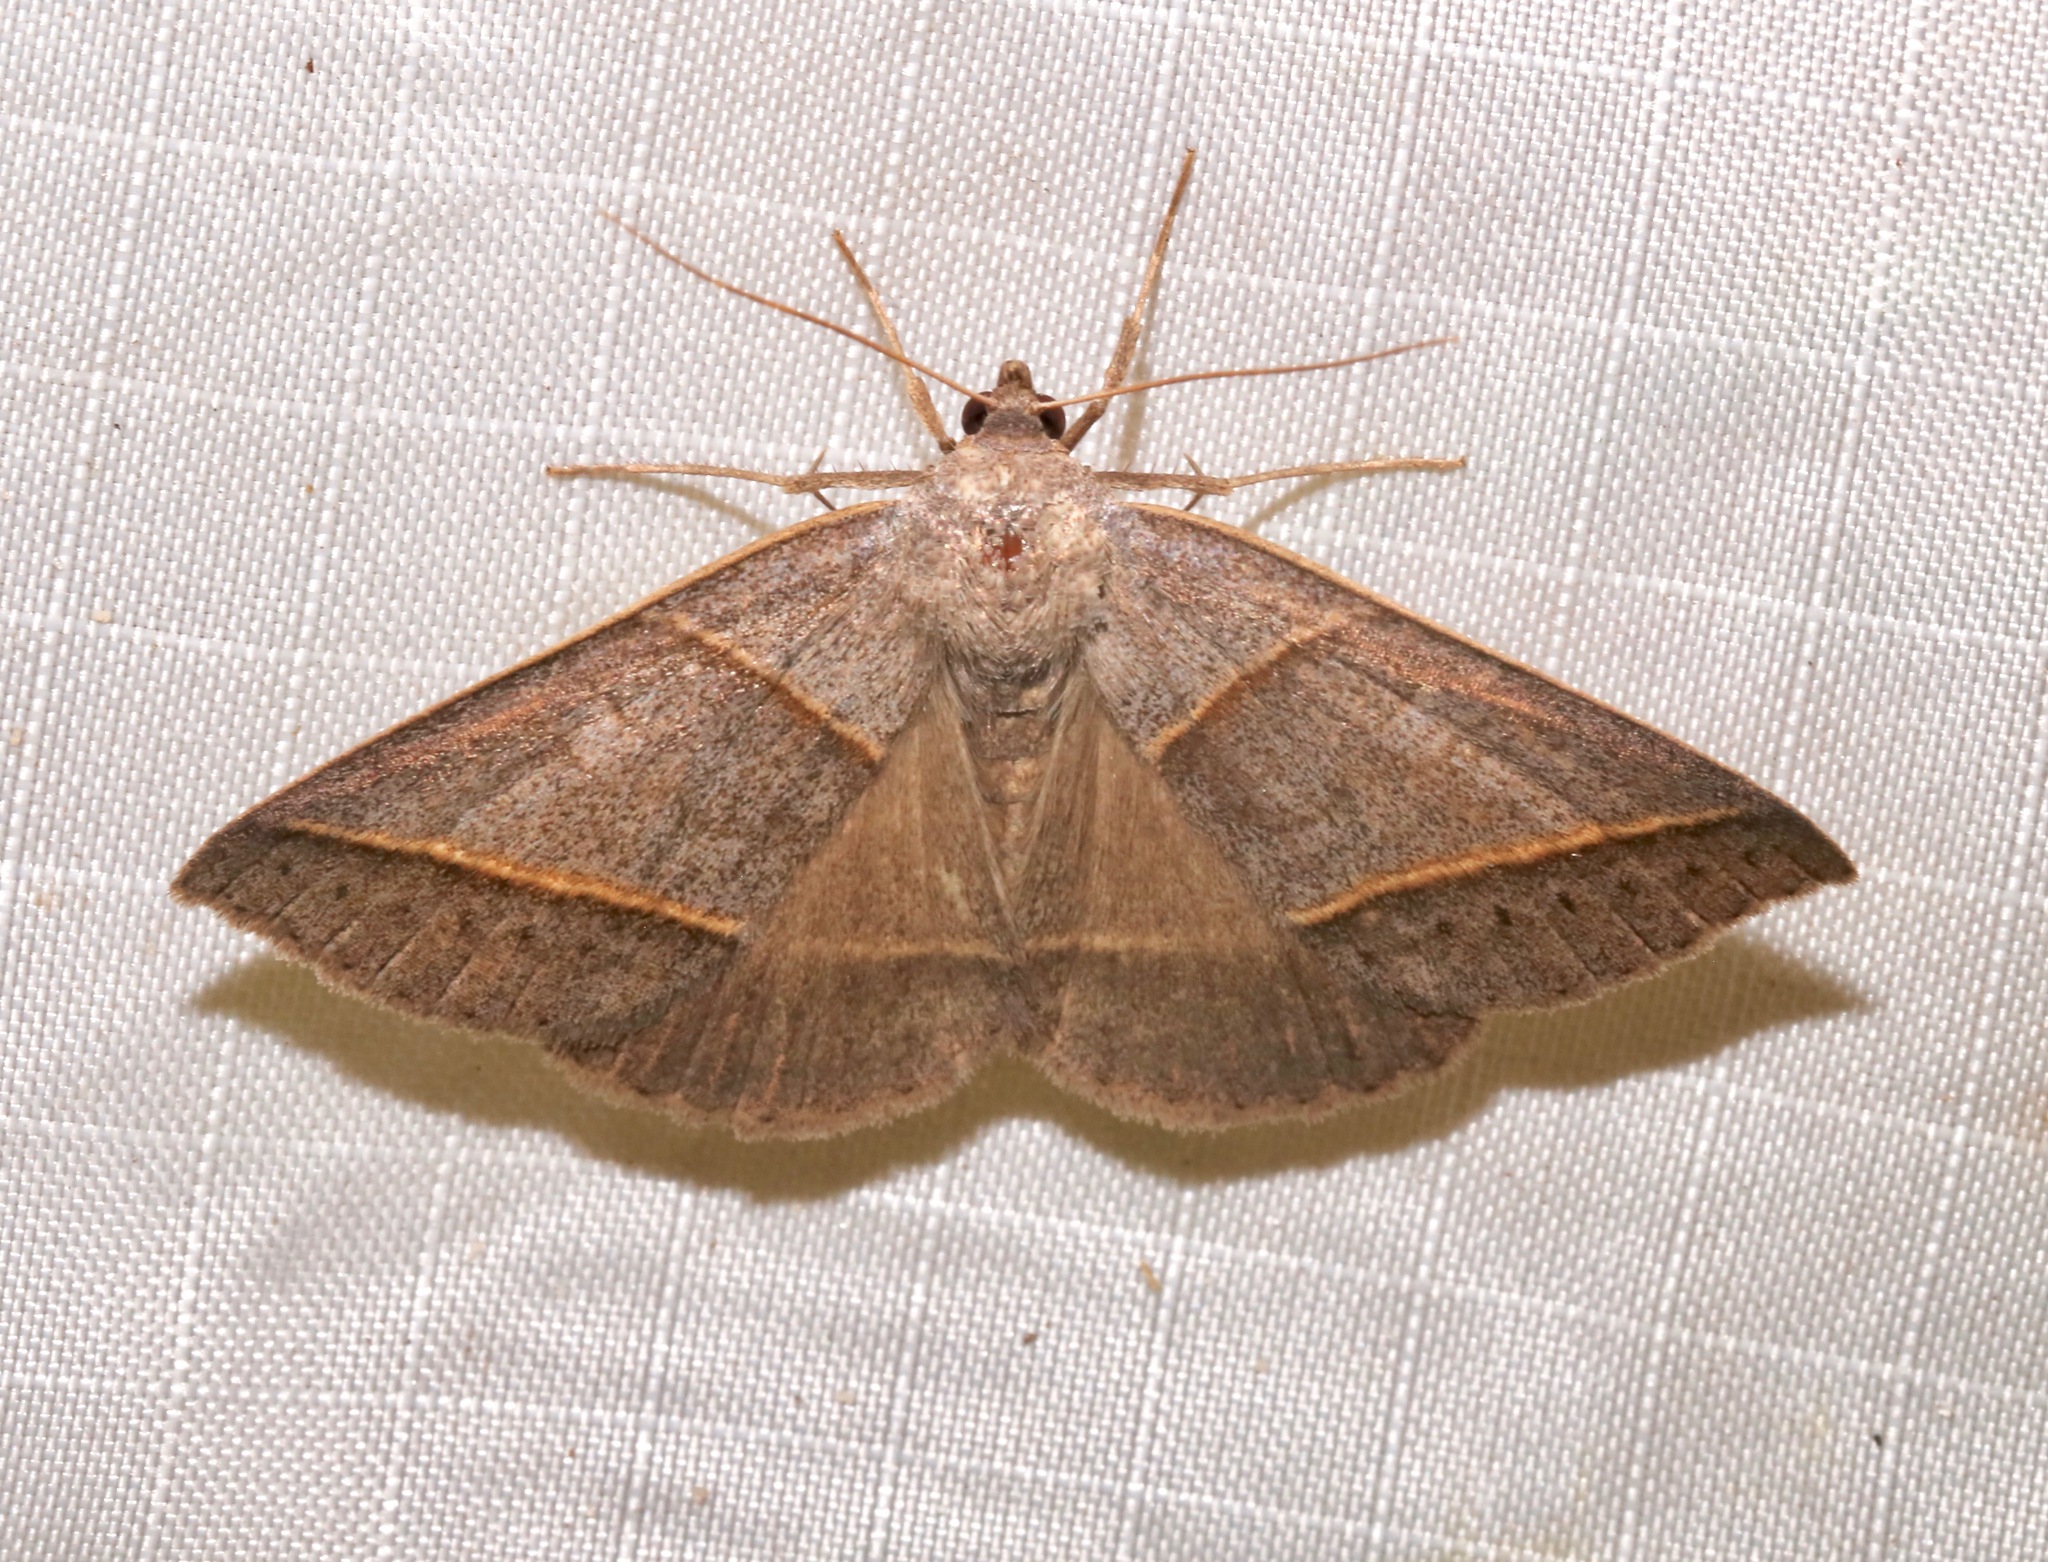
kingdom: Animalia
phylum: Arthropoda
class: Insecta
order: Lepidoptera
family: Erebidae
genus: Ptichodis
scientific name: Ptichodis herbarum
